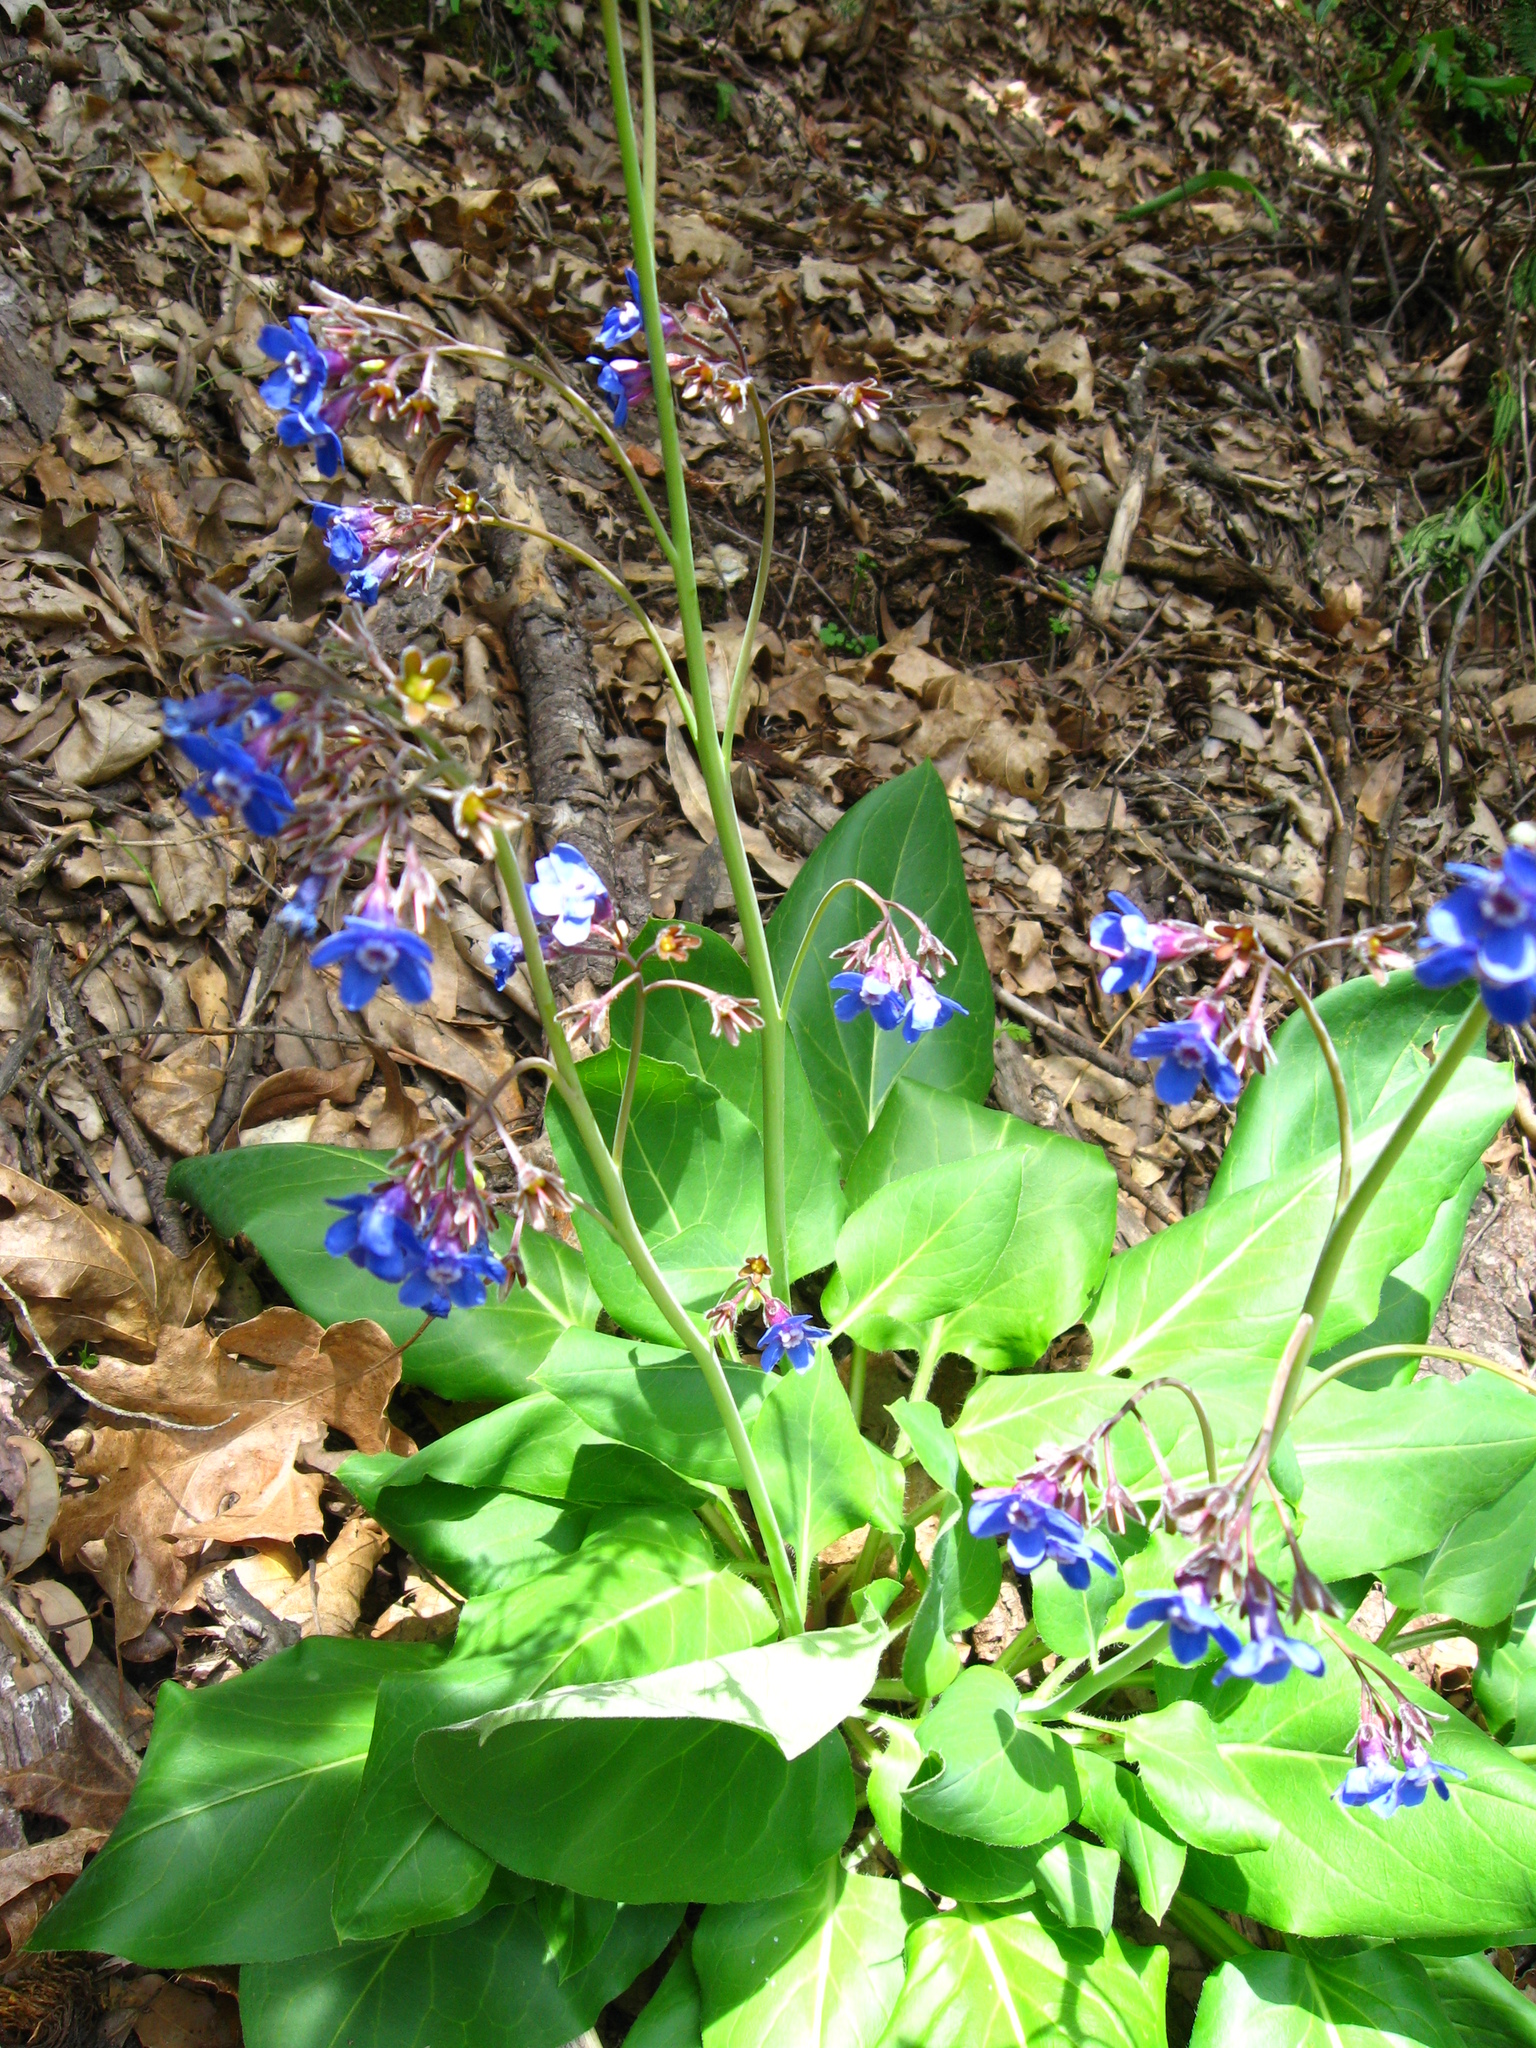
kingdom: Plantae
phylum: Tracheophyta
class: Magnoliopsida
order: Boraginales
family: Boraginaceae
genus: Adelinia
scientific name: Adelinia grande
